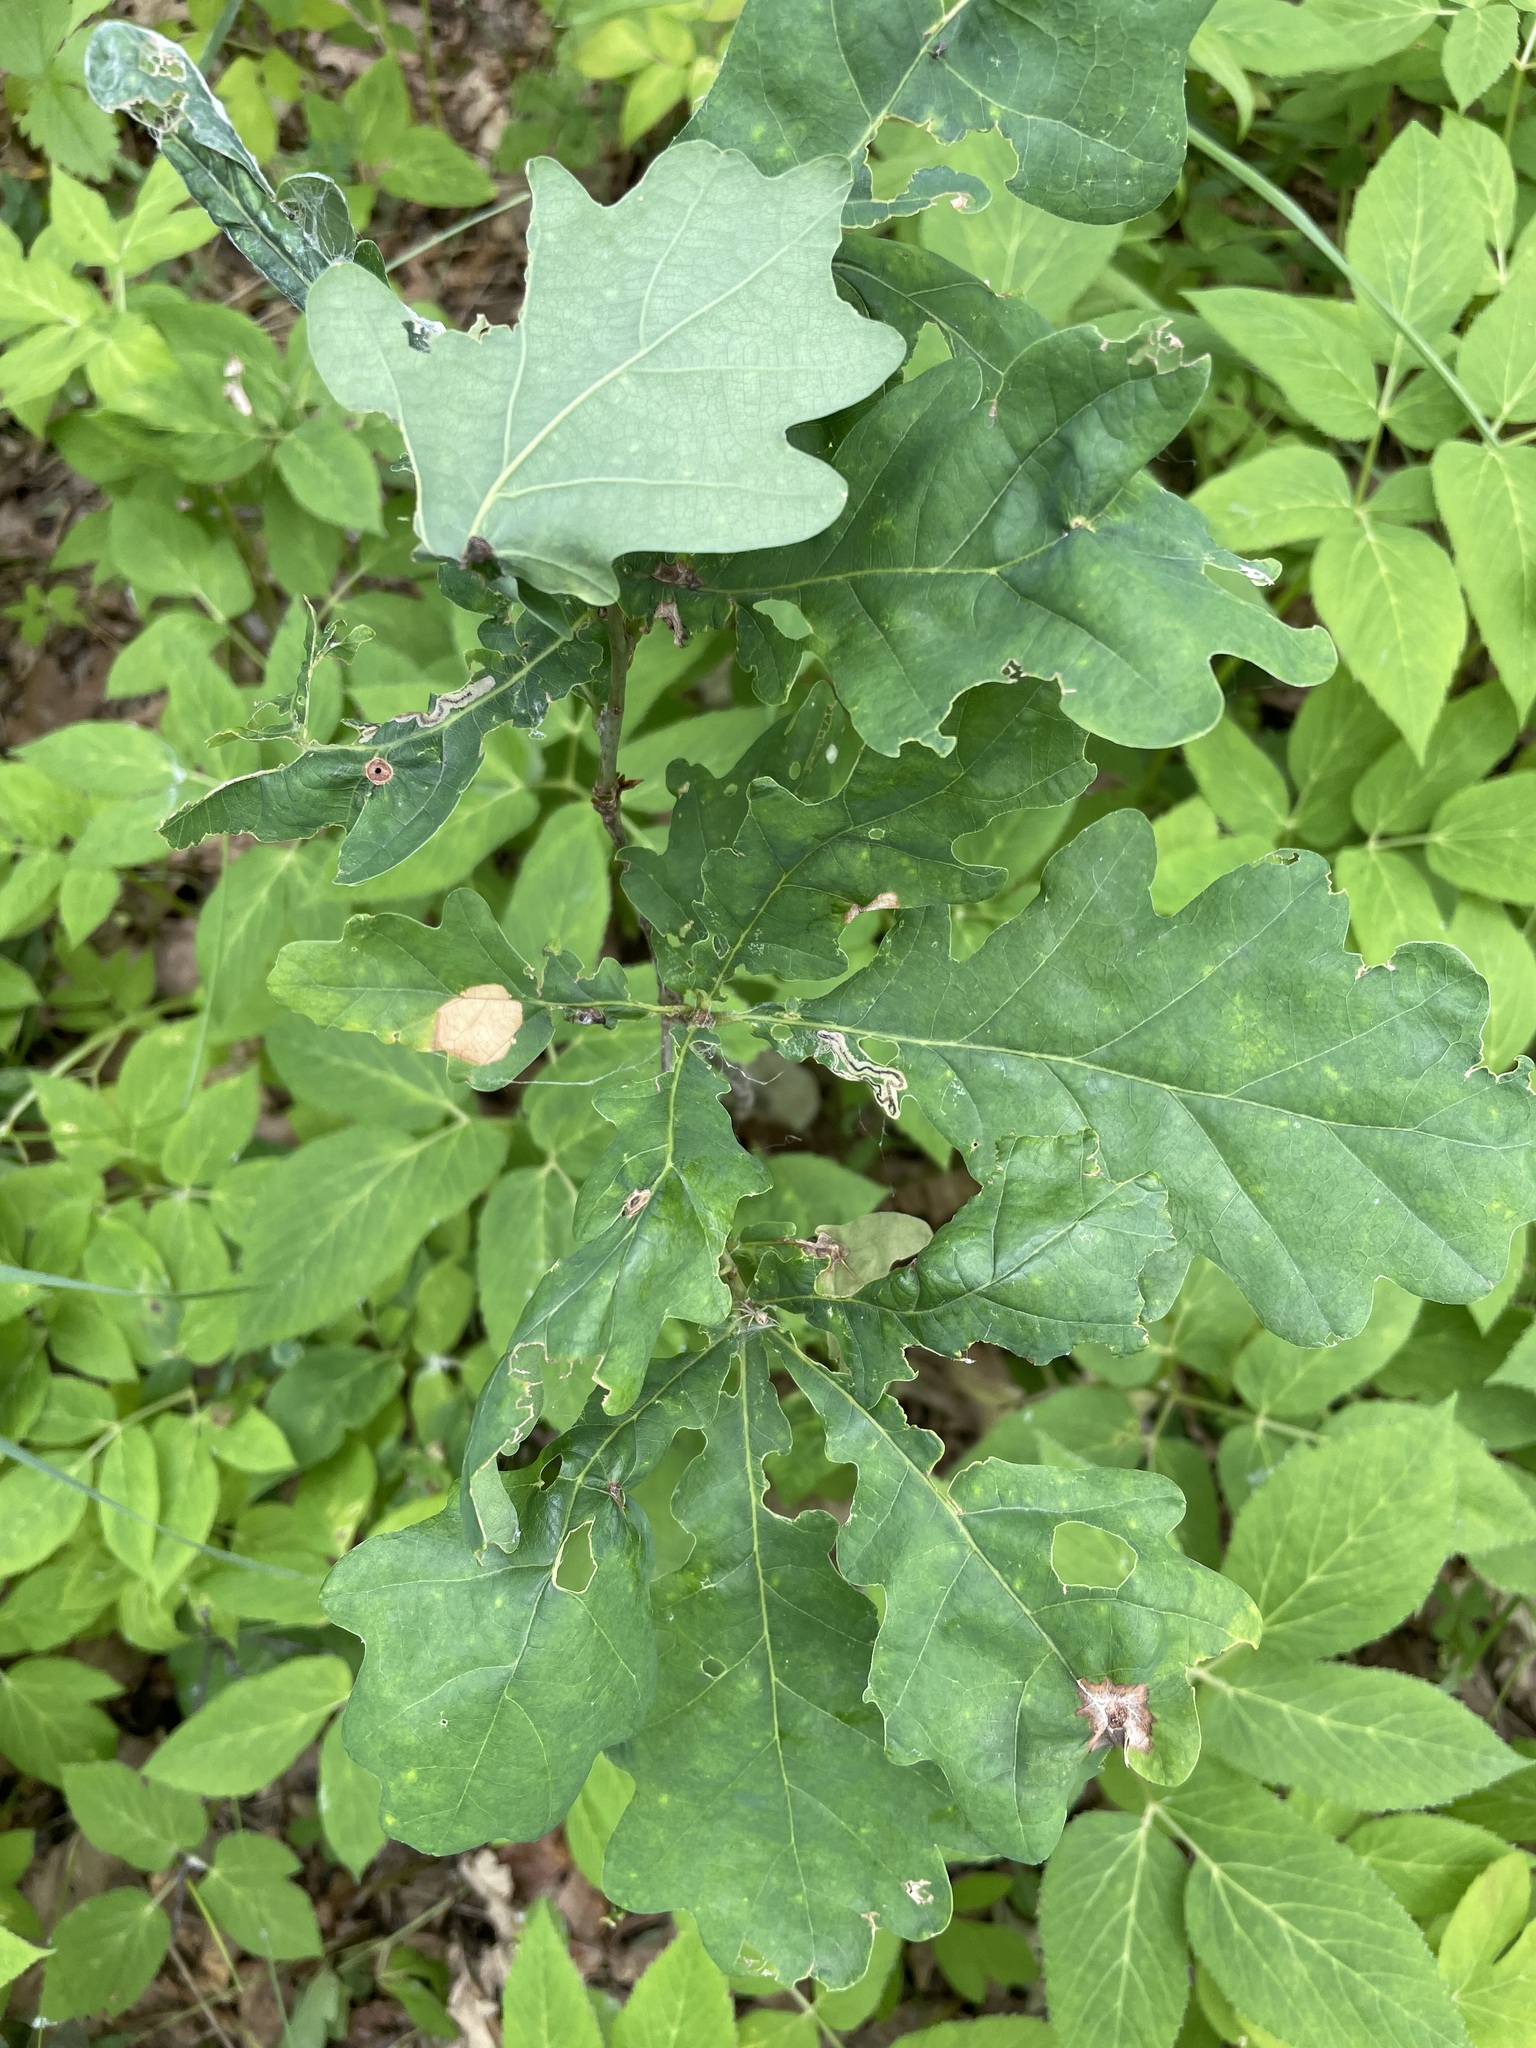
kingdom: Plantae
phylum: Tracheophyta
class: Magnoliopsida
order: Fagales
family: Fagaceae
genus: Quercus
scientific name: Quercus robur
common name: Pedunculate oak
